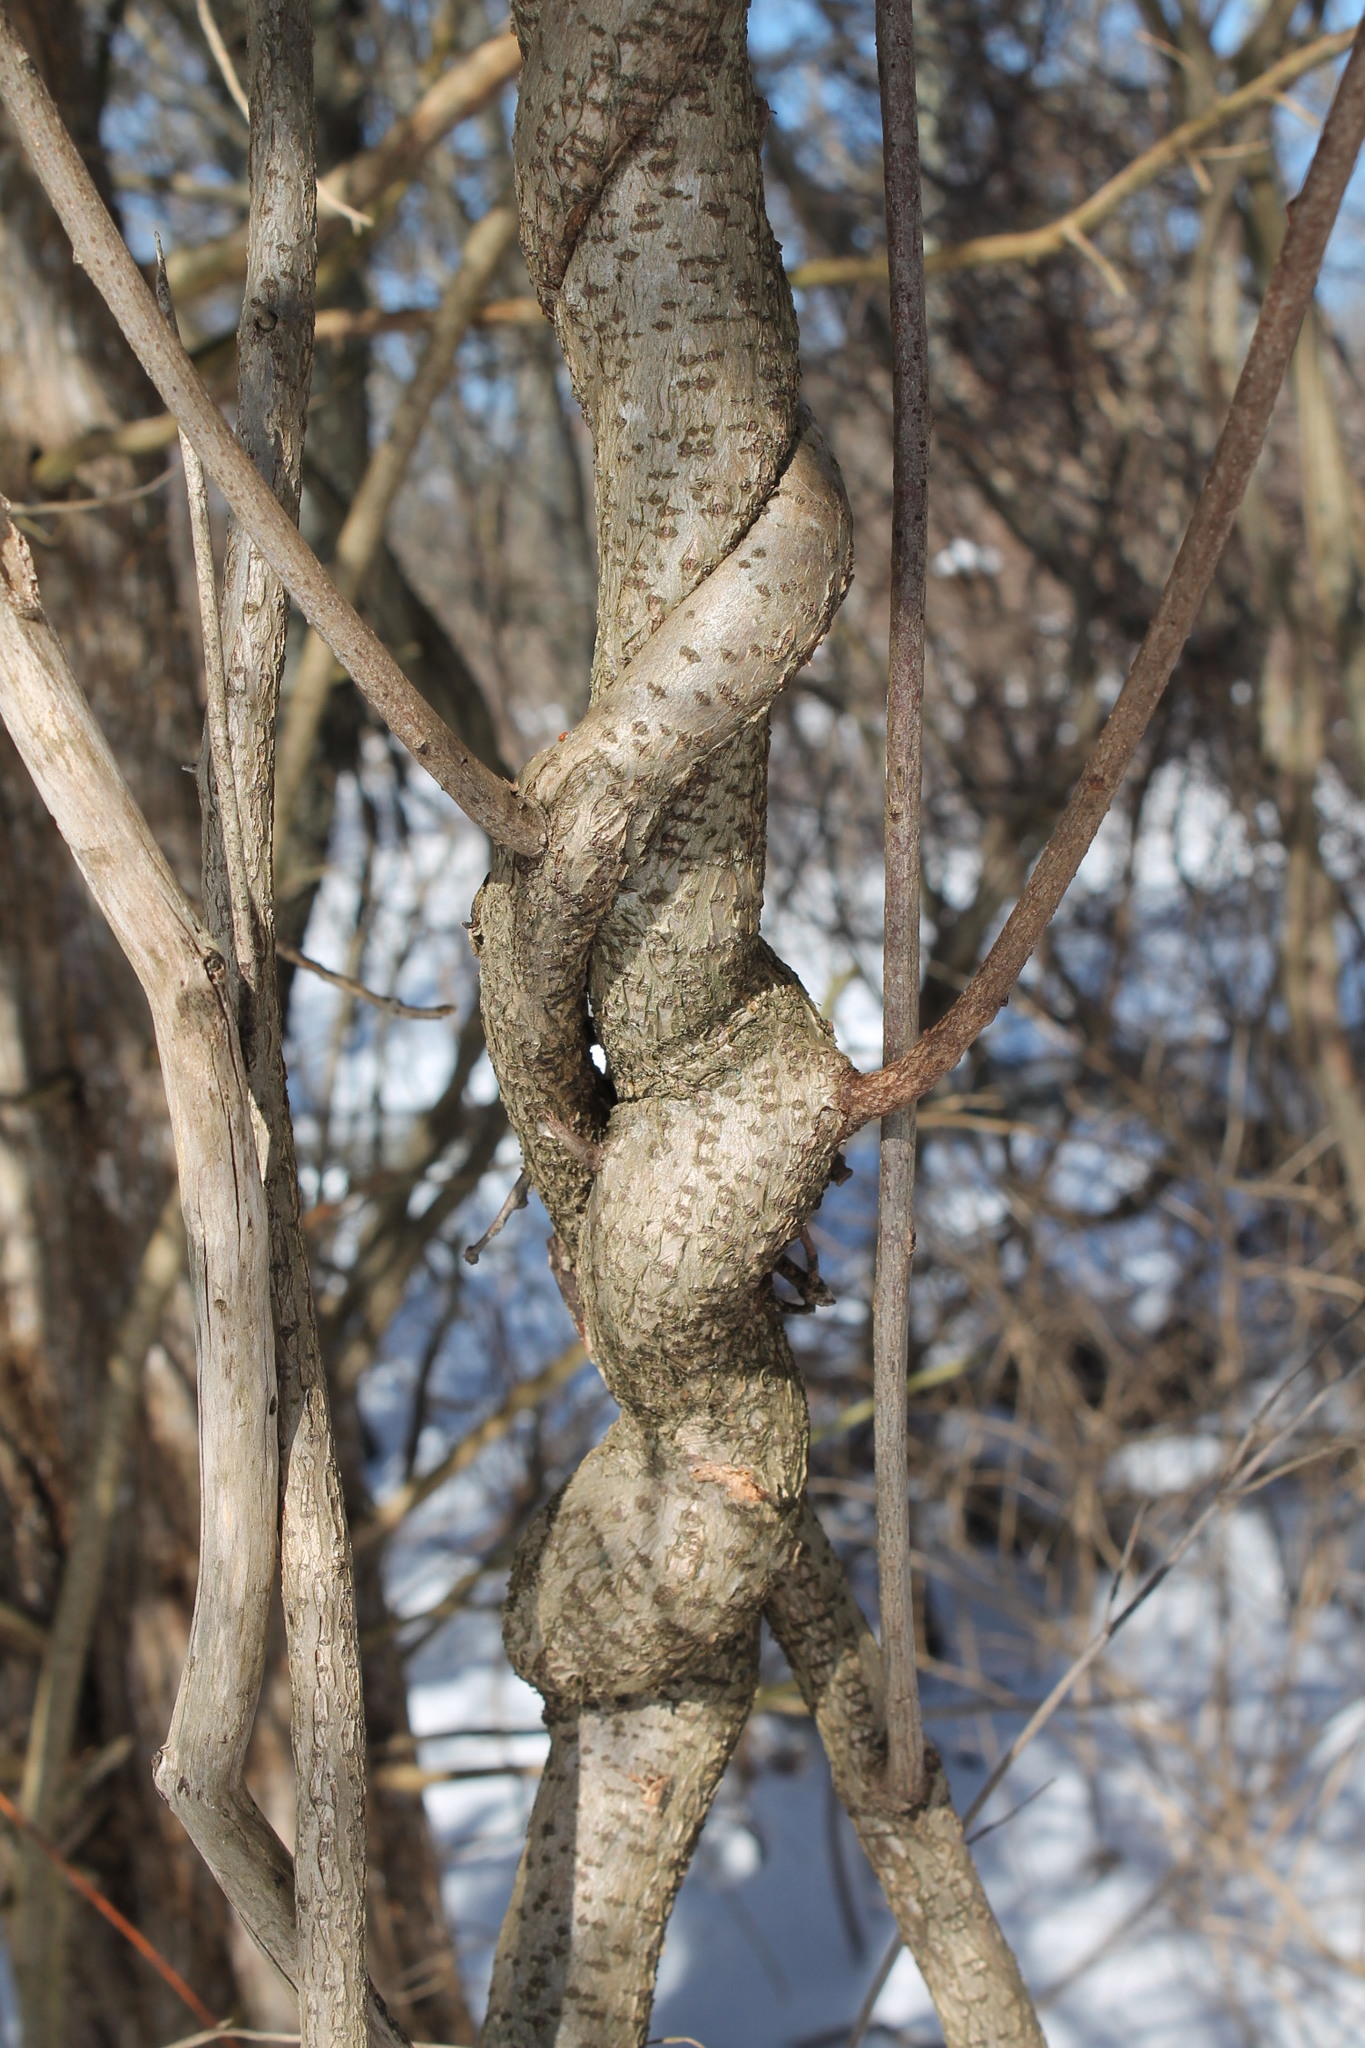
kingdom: Plantae
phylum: Tracheophyta
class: Magnoliopsida
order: Celastrales
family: Celastraceae
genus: Celastrus
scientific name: Celastrus orbiculatus
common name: Oriental bittersweet
